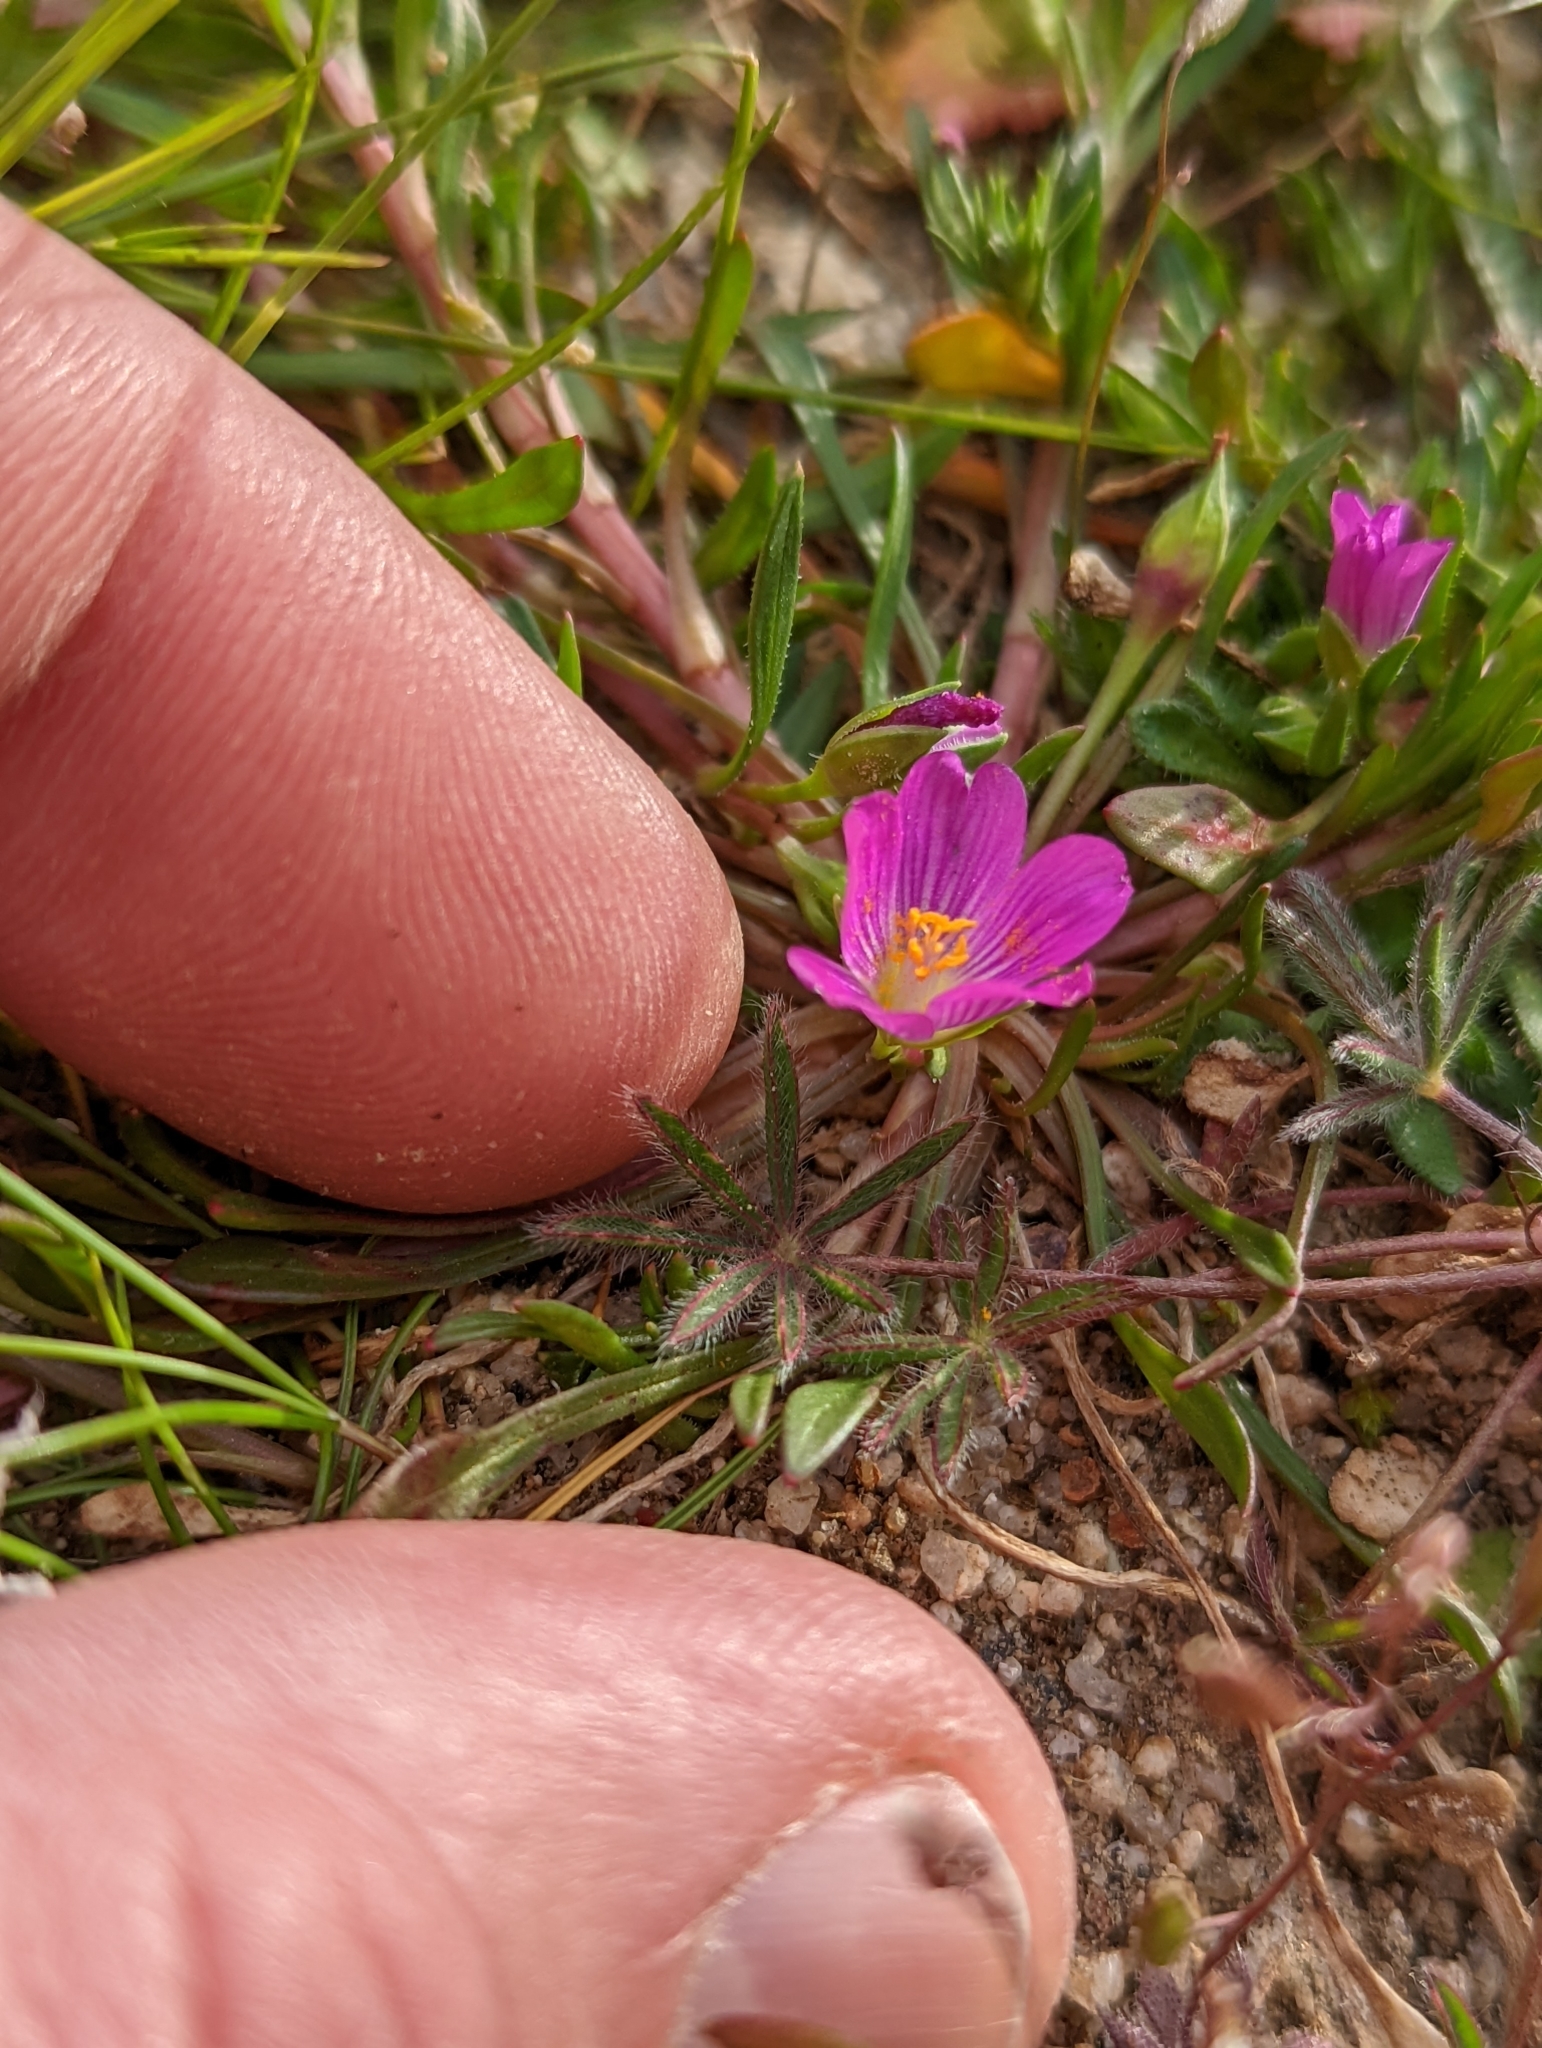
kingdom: Plantae
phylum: Tracheophyta
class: Magnoliopsida
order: Caryophyllales
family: Montiaceae
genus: Calandrinia
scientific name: Calandrinia menziesii
